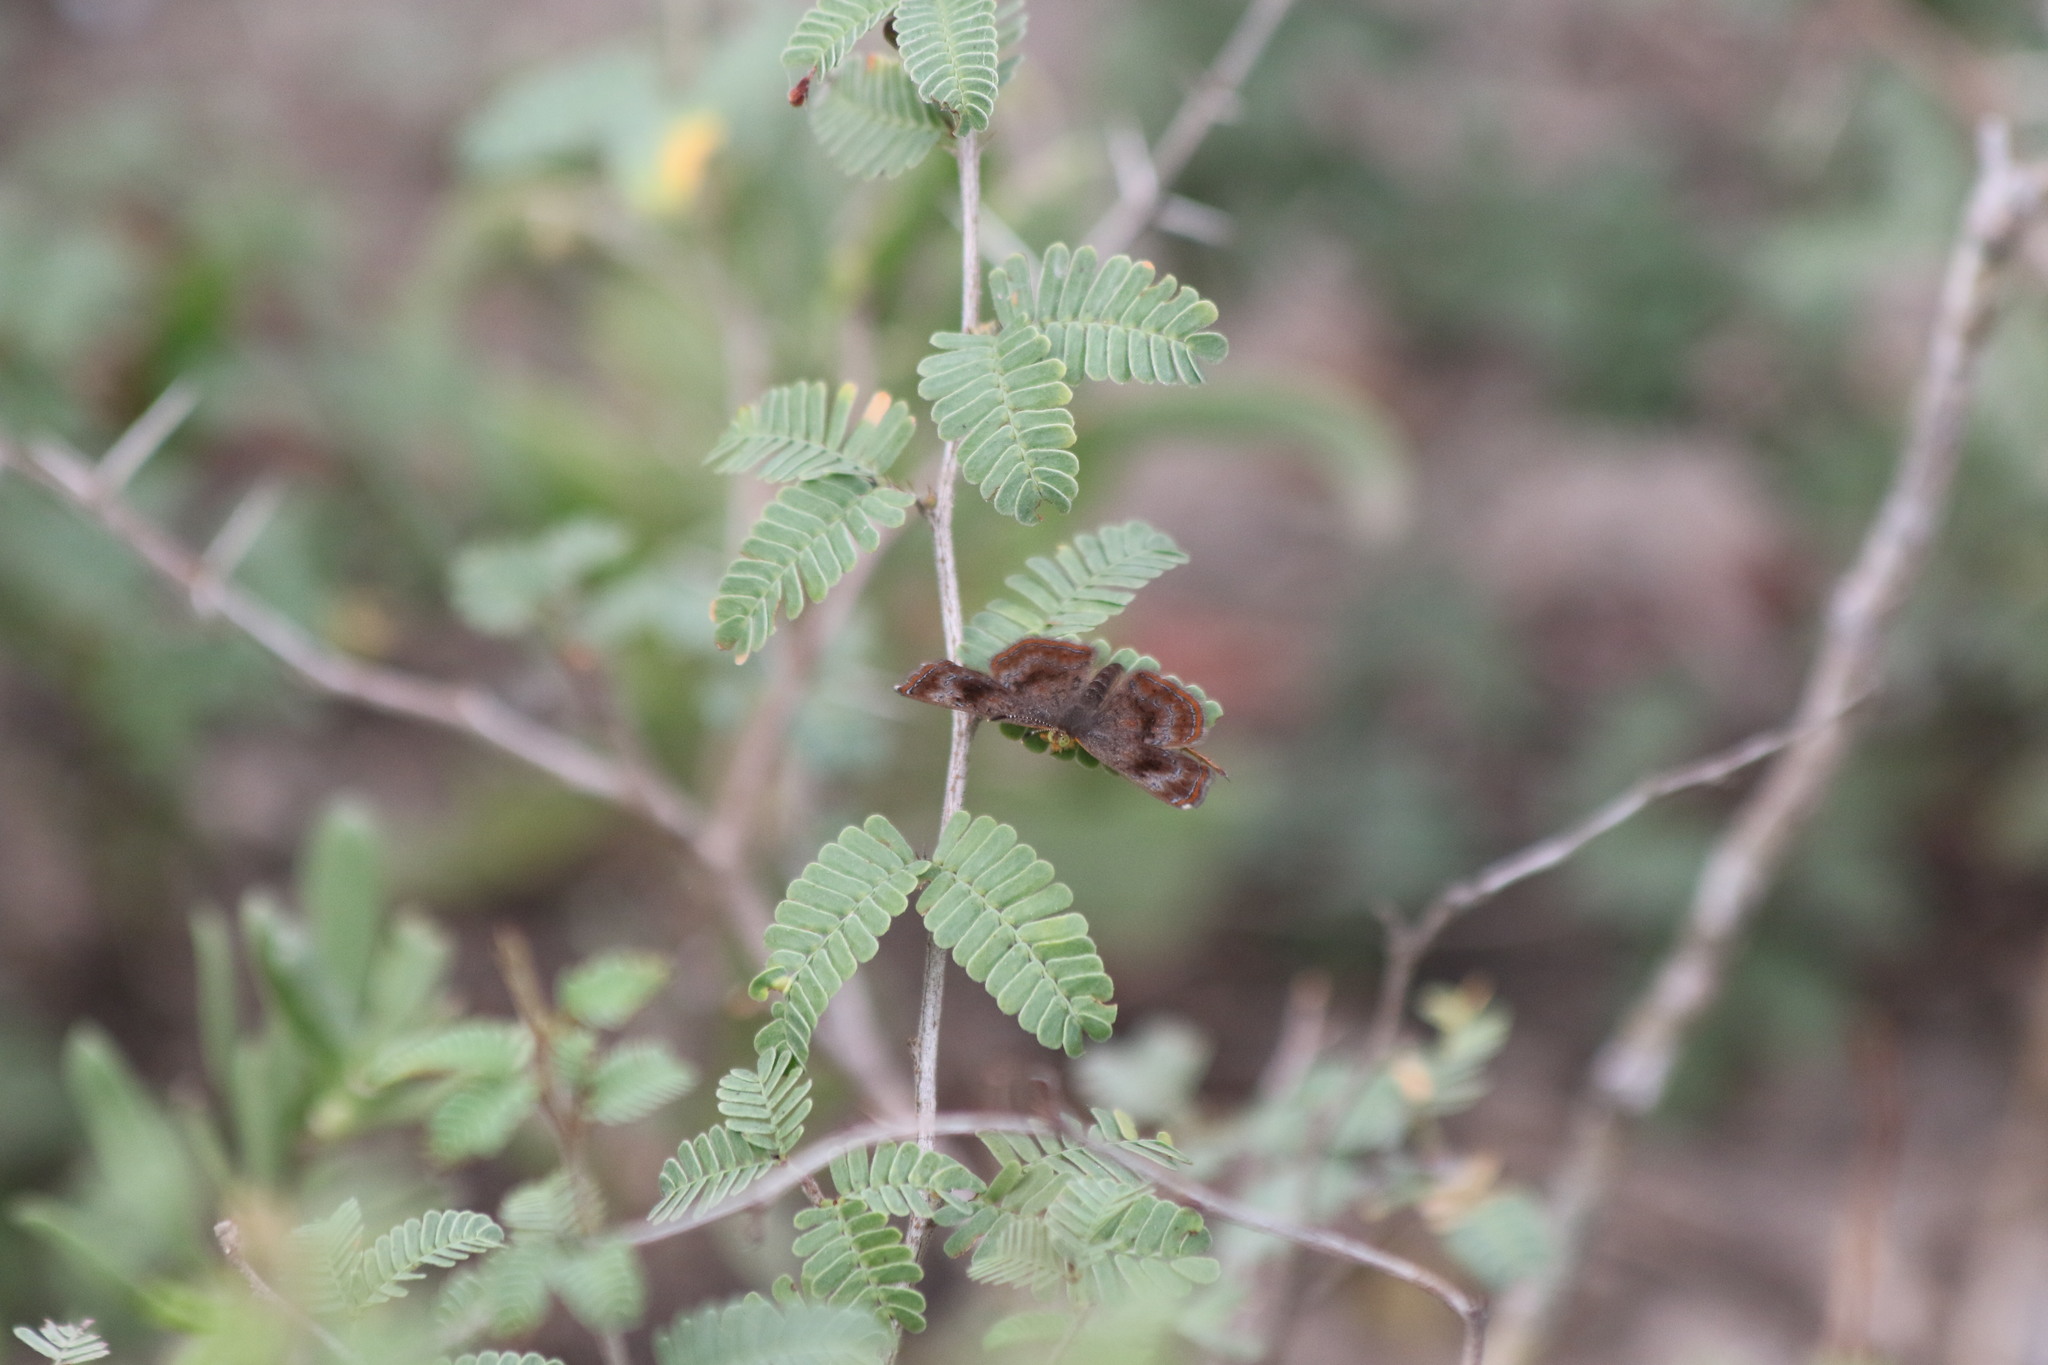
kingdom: Animalia
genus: Calephelis
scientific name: Calephelis perditalis
